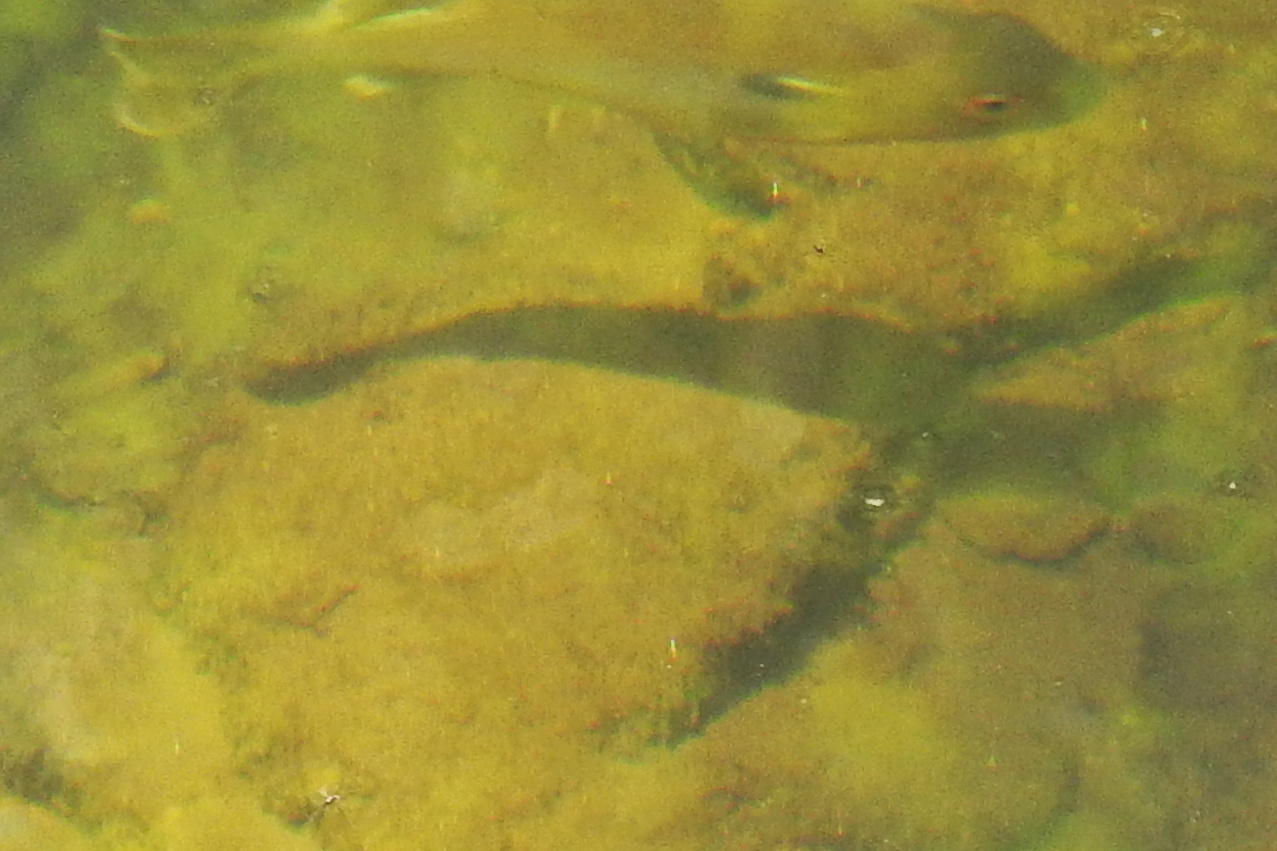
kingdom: Animalia
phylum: Chordata
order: Perciformes
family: Centrarchidae
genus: Lepomis
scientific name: Lepomis auritus
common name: Redbreast sunfish
